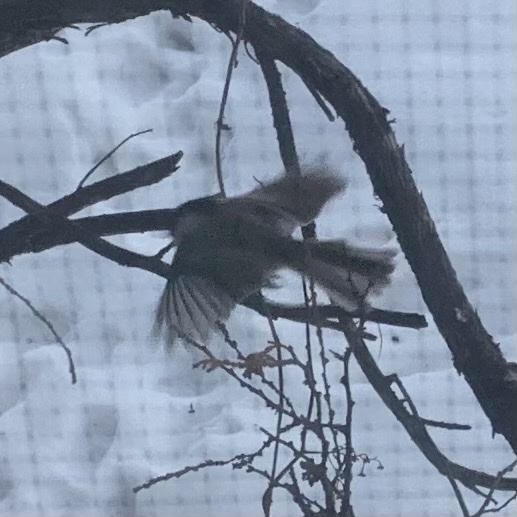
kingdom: Animalia
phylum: Chordata
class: Aves
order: Passeriformes
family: Paridae
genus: Poecile
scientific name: Poecile atricapillus
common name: Black-capped chickadee
